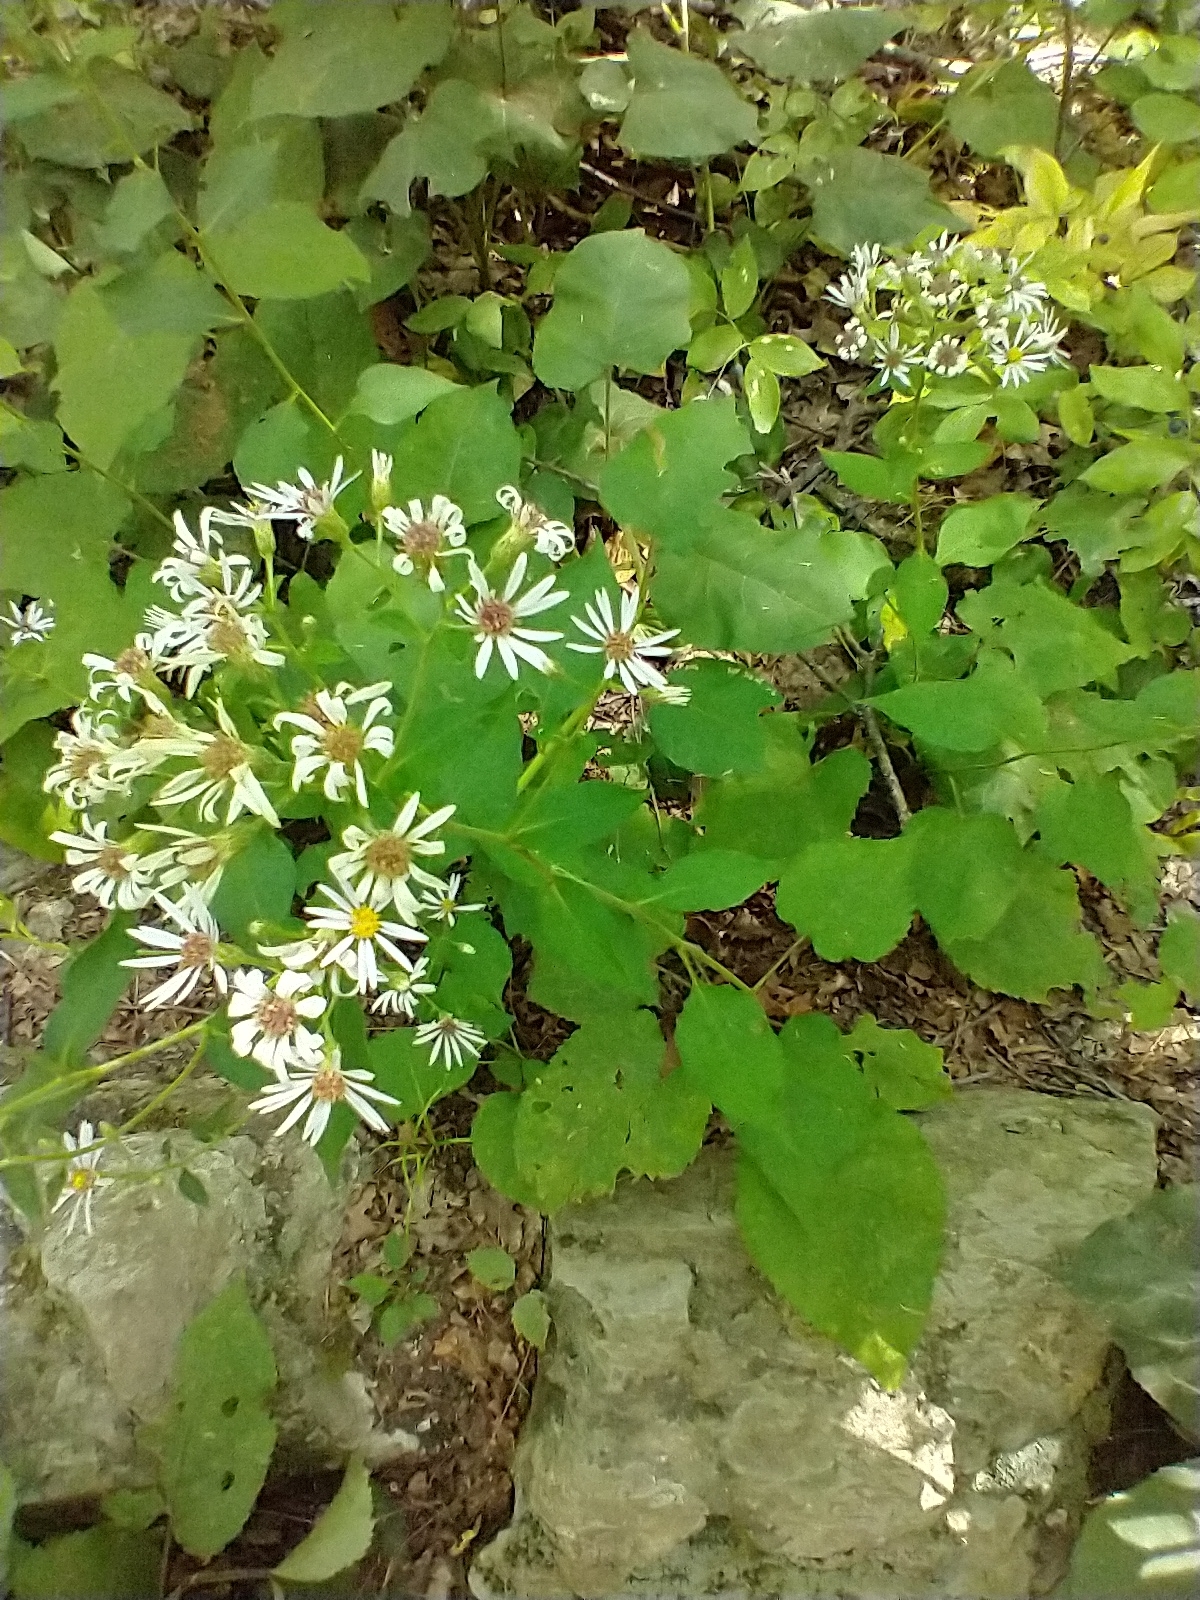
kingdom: Plantae
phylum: Tracheophyta
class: Magnoliopsida
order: Asterales
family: Asteraceae
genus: Eurybia
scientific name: Eurybia macrophylla
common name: Big-leaved aster
